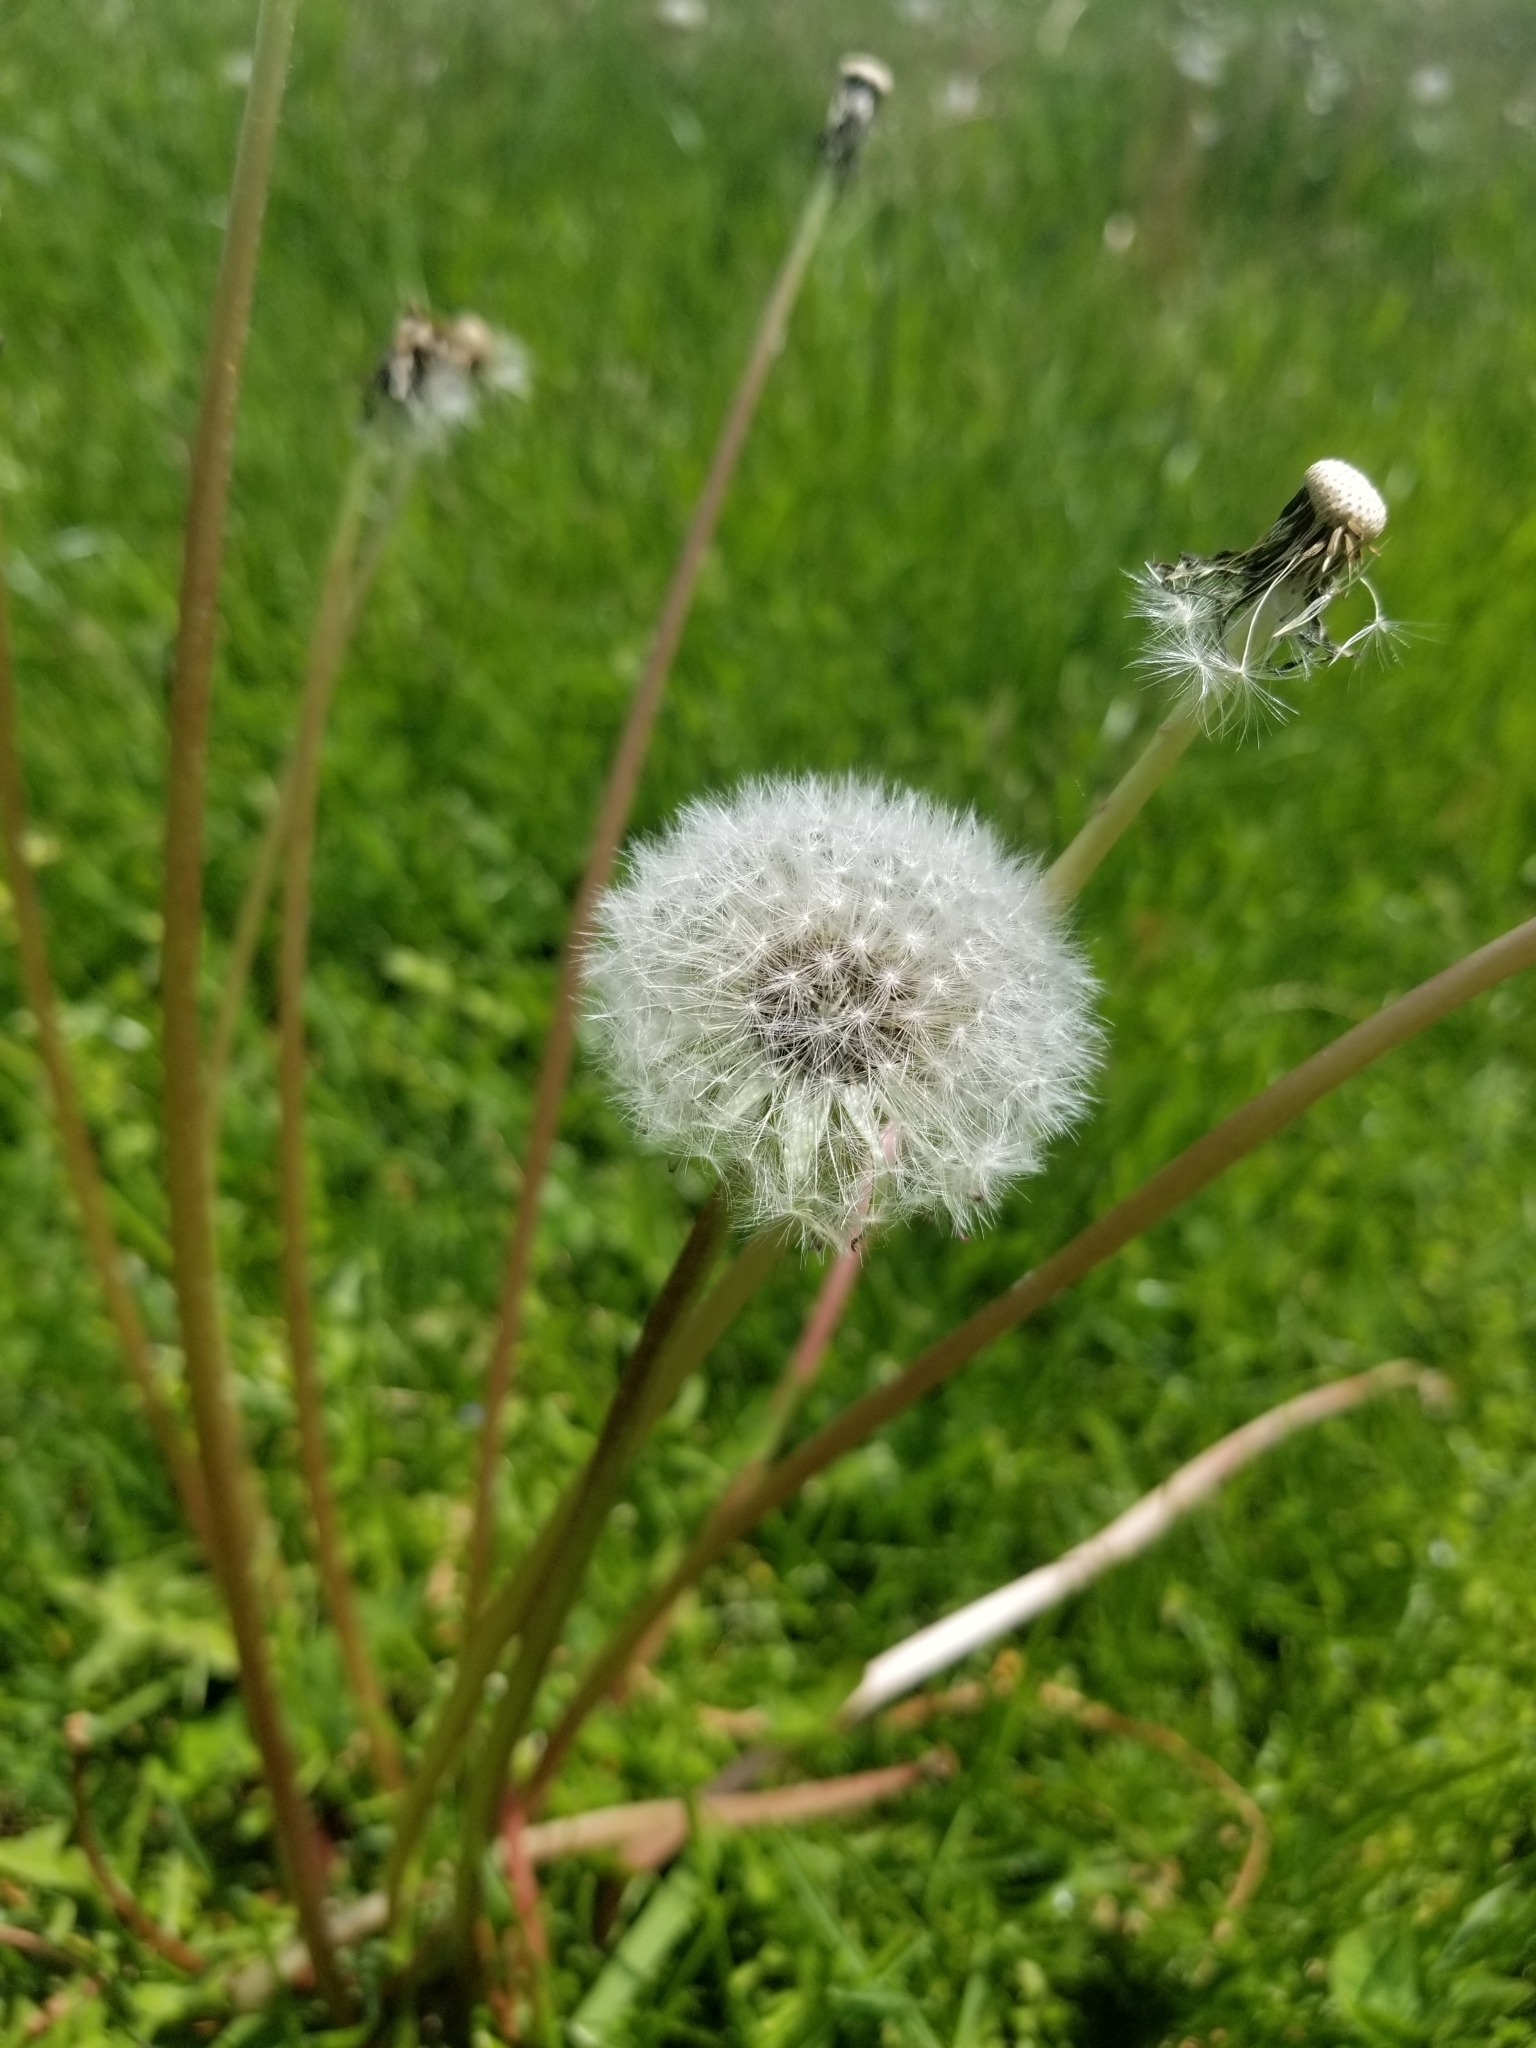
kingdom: Plantae
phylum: Tracheophyta
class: Magnoliopsida
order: Asterales
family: Asteraceae
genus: Taraxacum
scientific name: Taraxacum officinale
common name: Common dandelion
